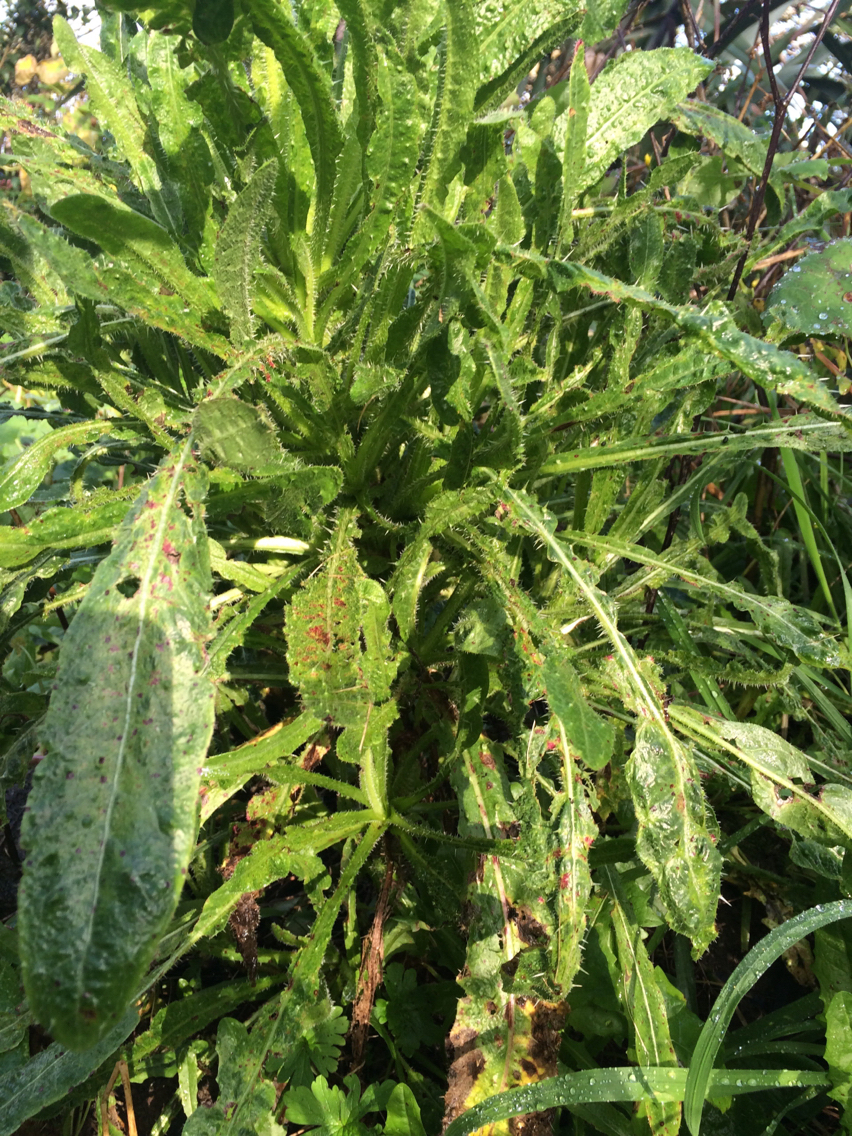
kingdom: Plantae
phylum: Tracheophyta
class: Magnoliopsida
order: Asterales
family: Asteraceae
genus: Helminthotheca
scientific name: Helminthotheca echioides
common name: Ox-tongue
